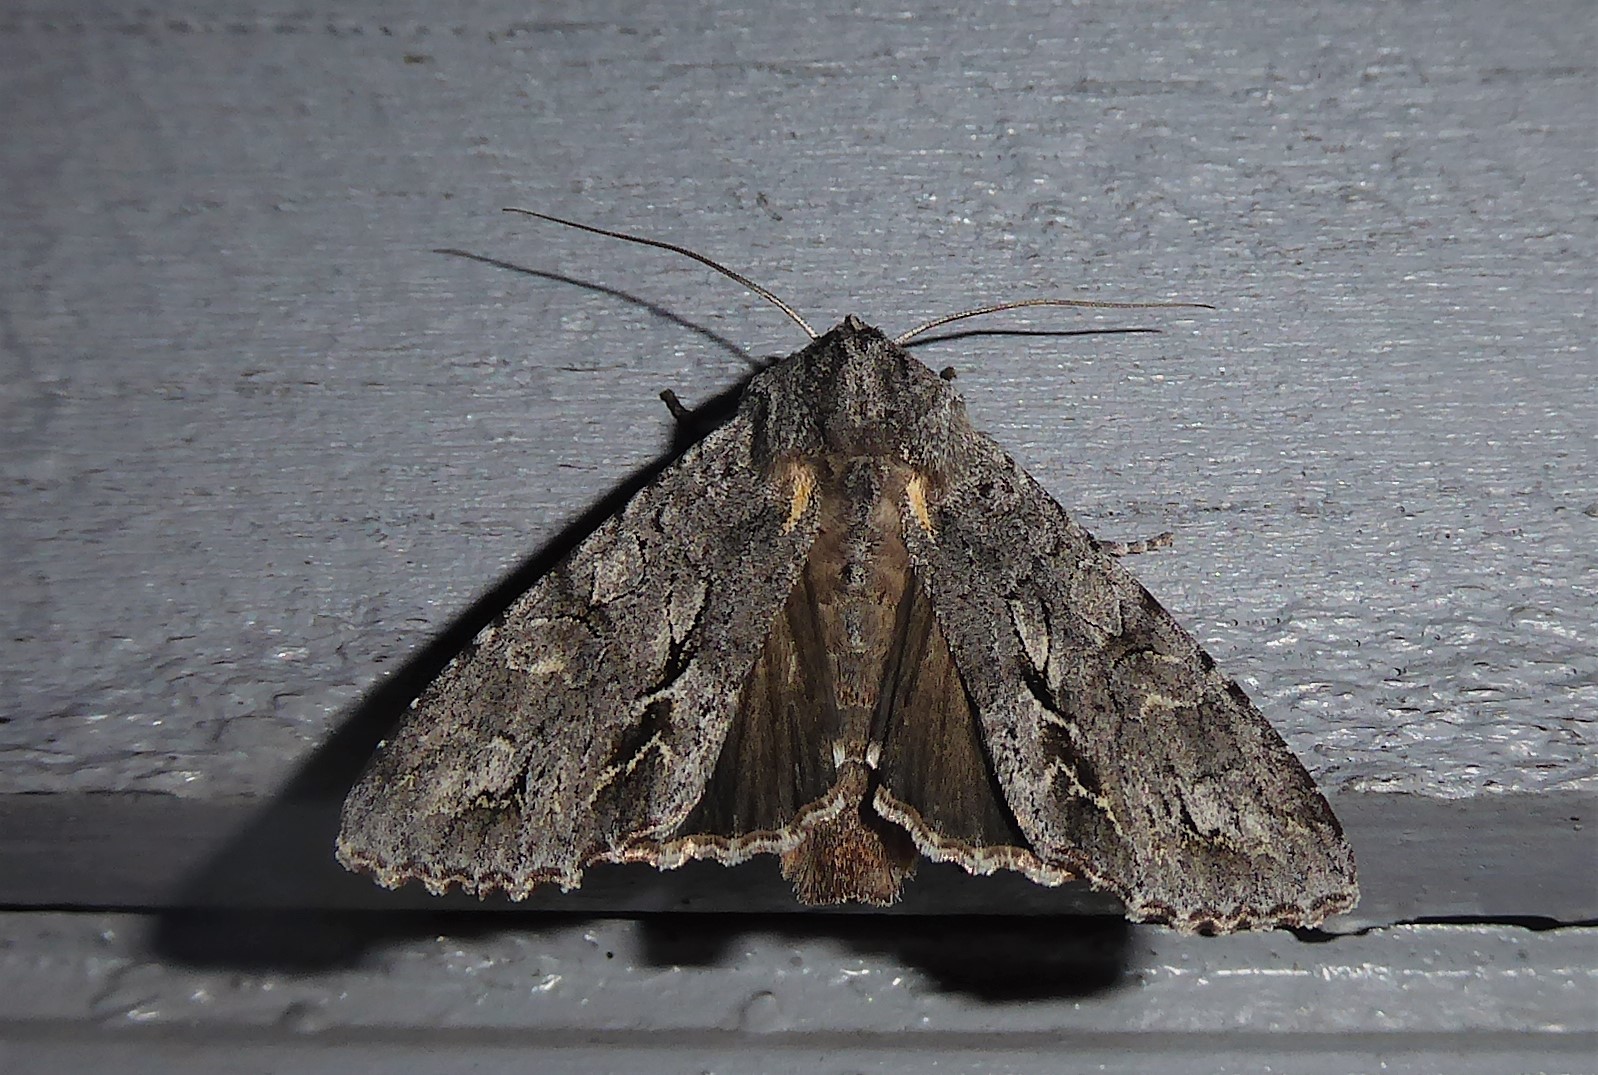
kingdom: Animalia
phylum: Arthropoda
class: Insecta
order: Lepidoptera
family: Noctuidae
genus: Ichneutica
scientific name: Ichneutica
